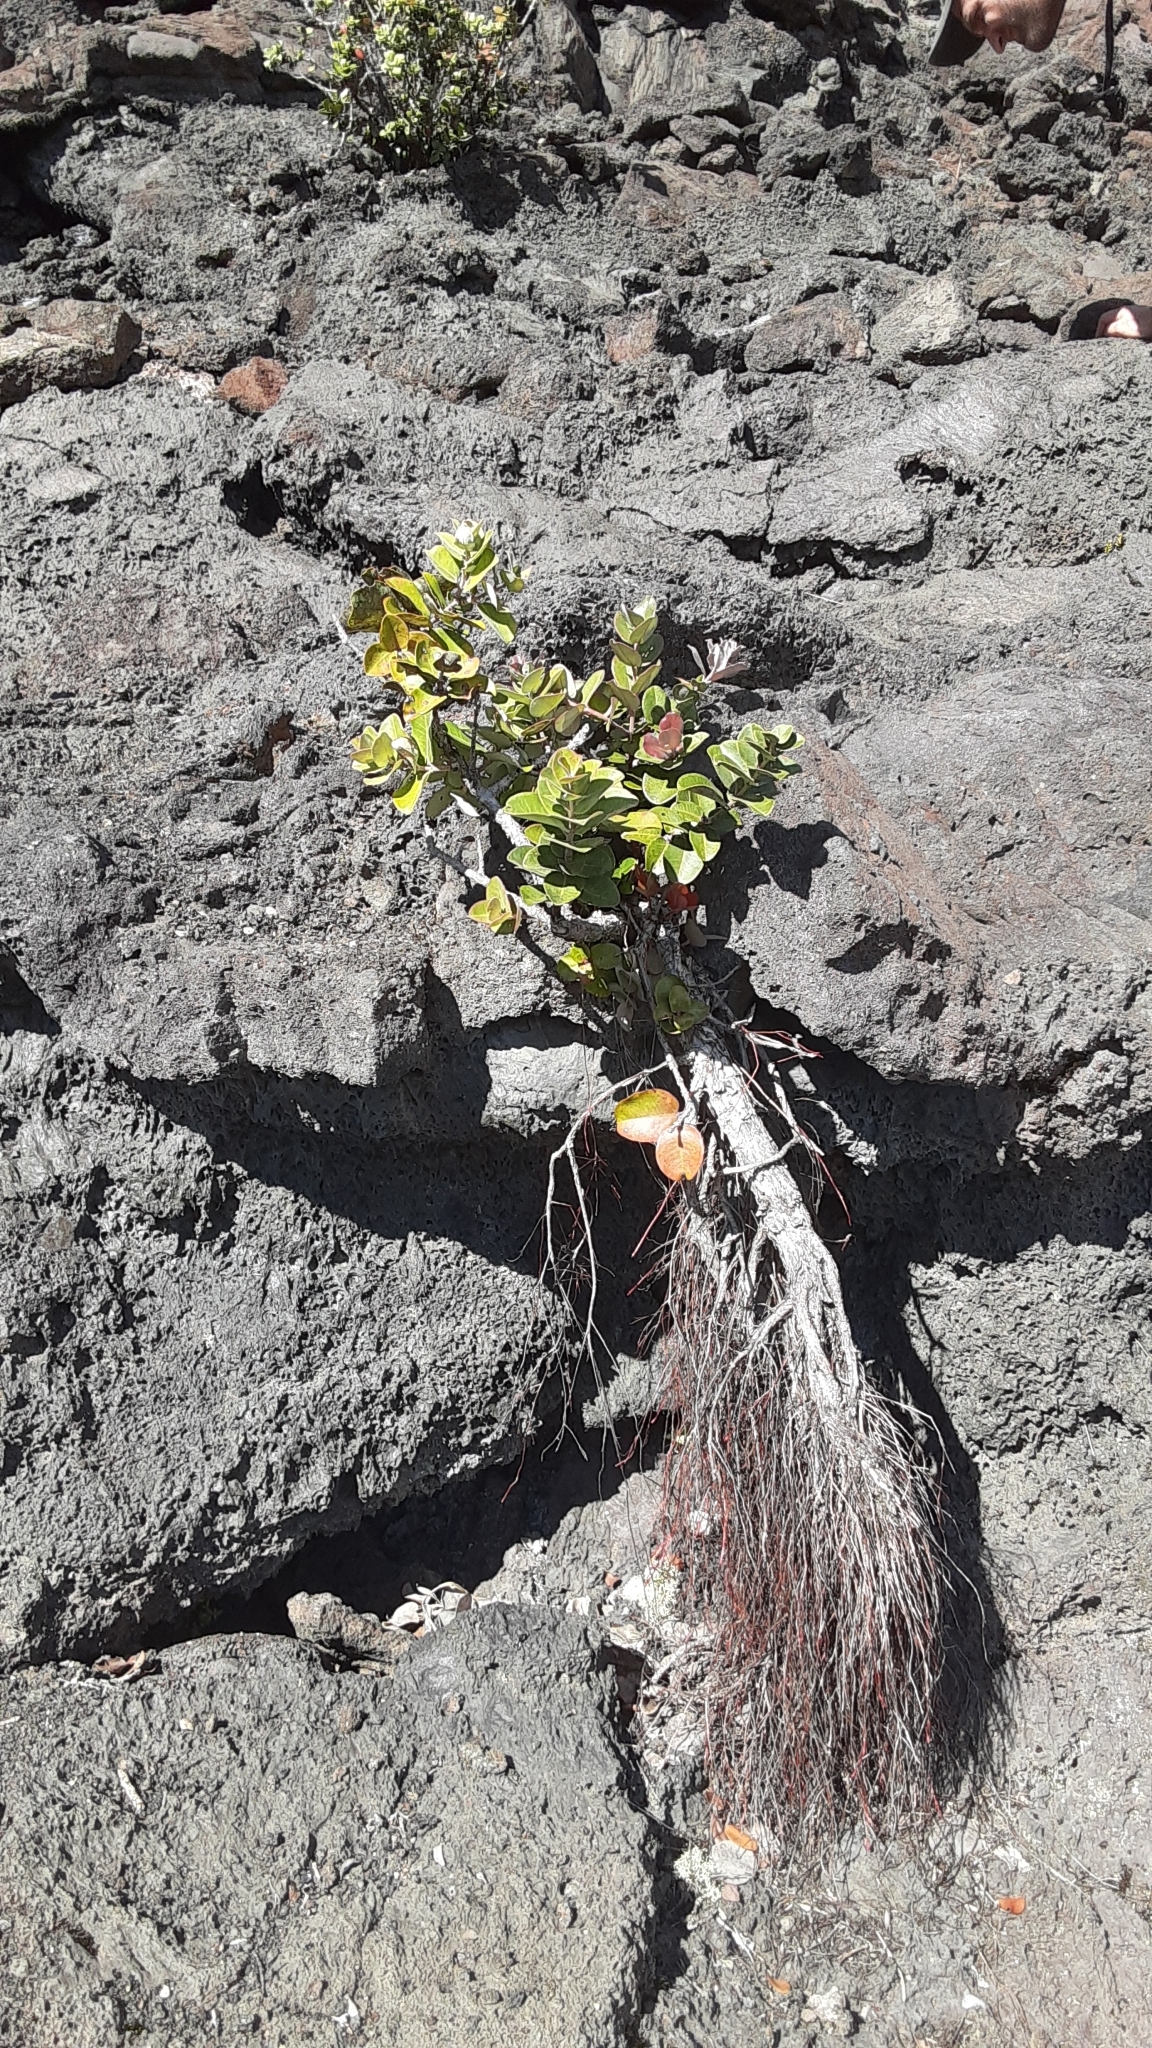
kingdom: Plantae
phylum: Tracheophyta
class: Magnoliopsida
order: Myrtales
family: Myrtaceae
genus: Metrosideros
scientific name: Metrosideros polymorpha
